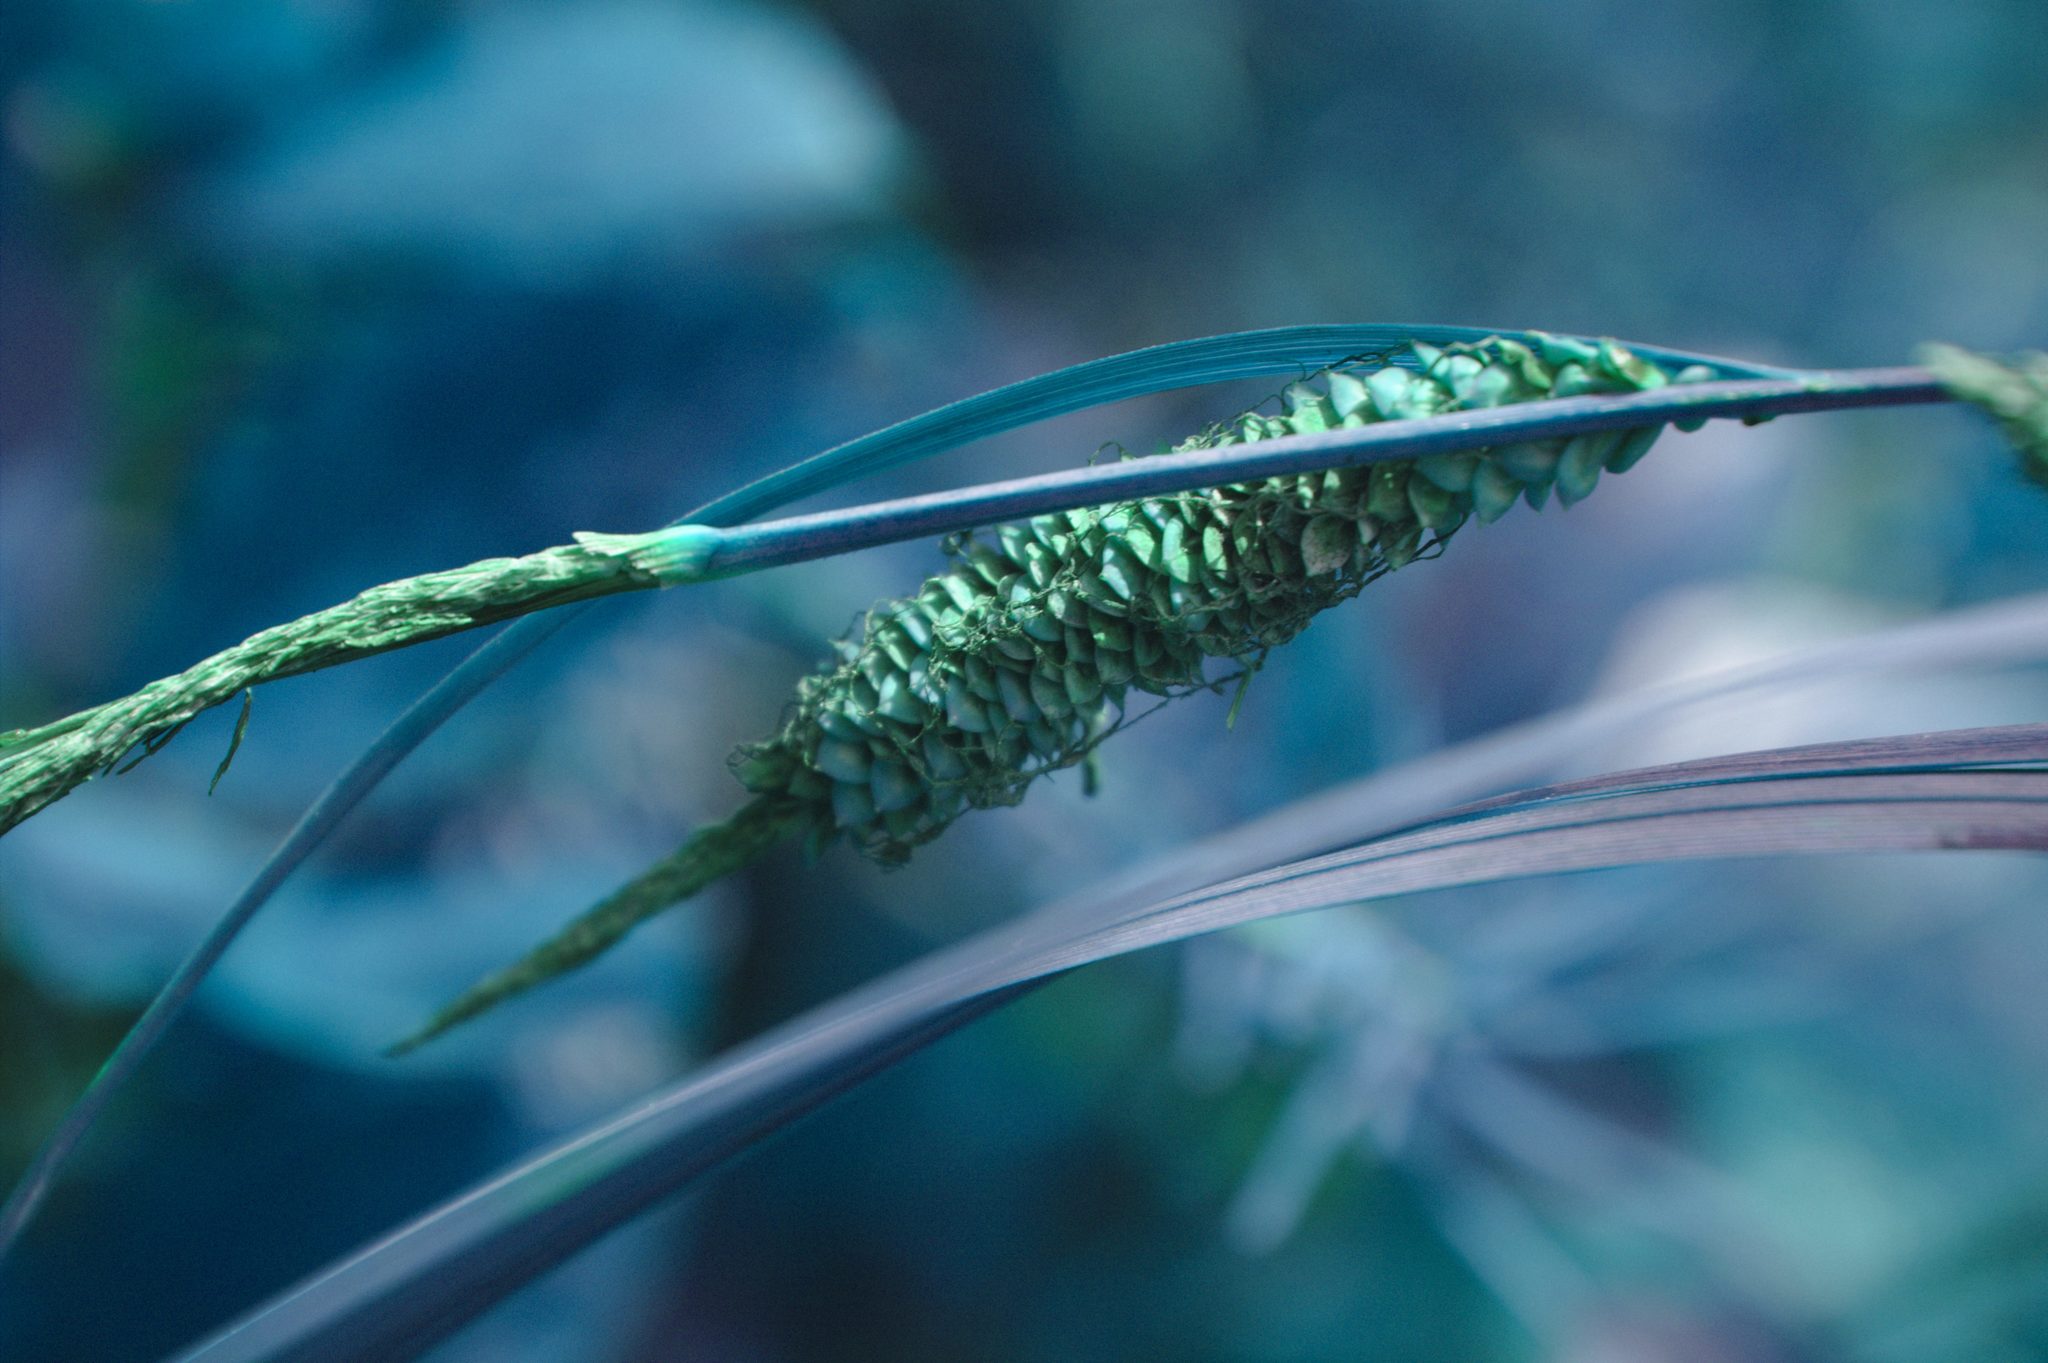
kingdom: Plantae
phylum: Tracheophyta
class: Liliopsida
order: Poales
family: Cyperaceae
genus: Carex
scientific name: Carex aquatilis
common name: Water sedge
